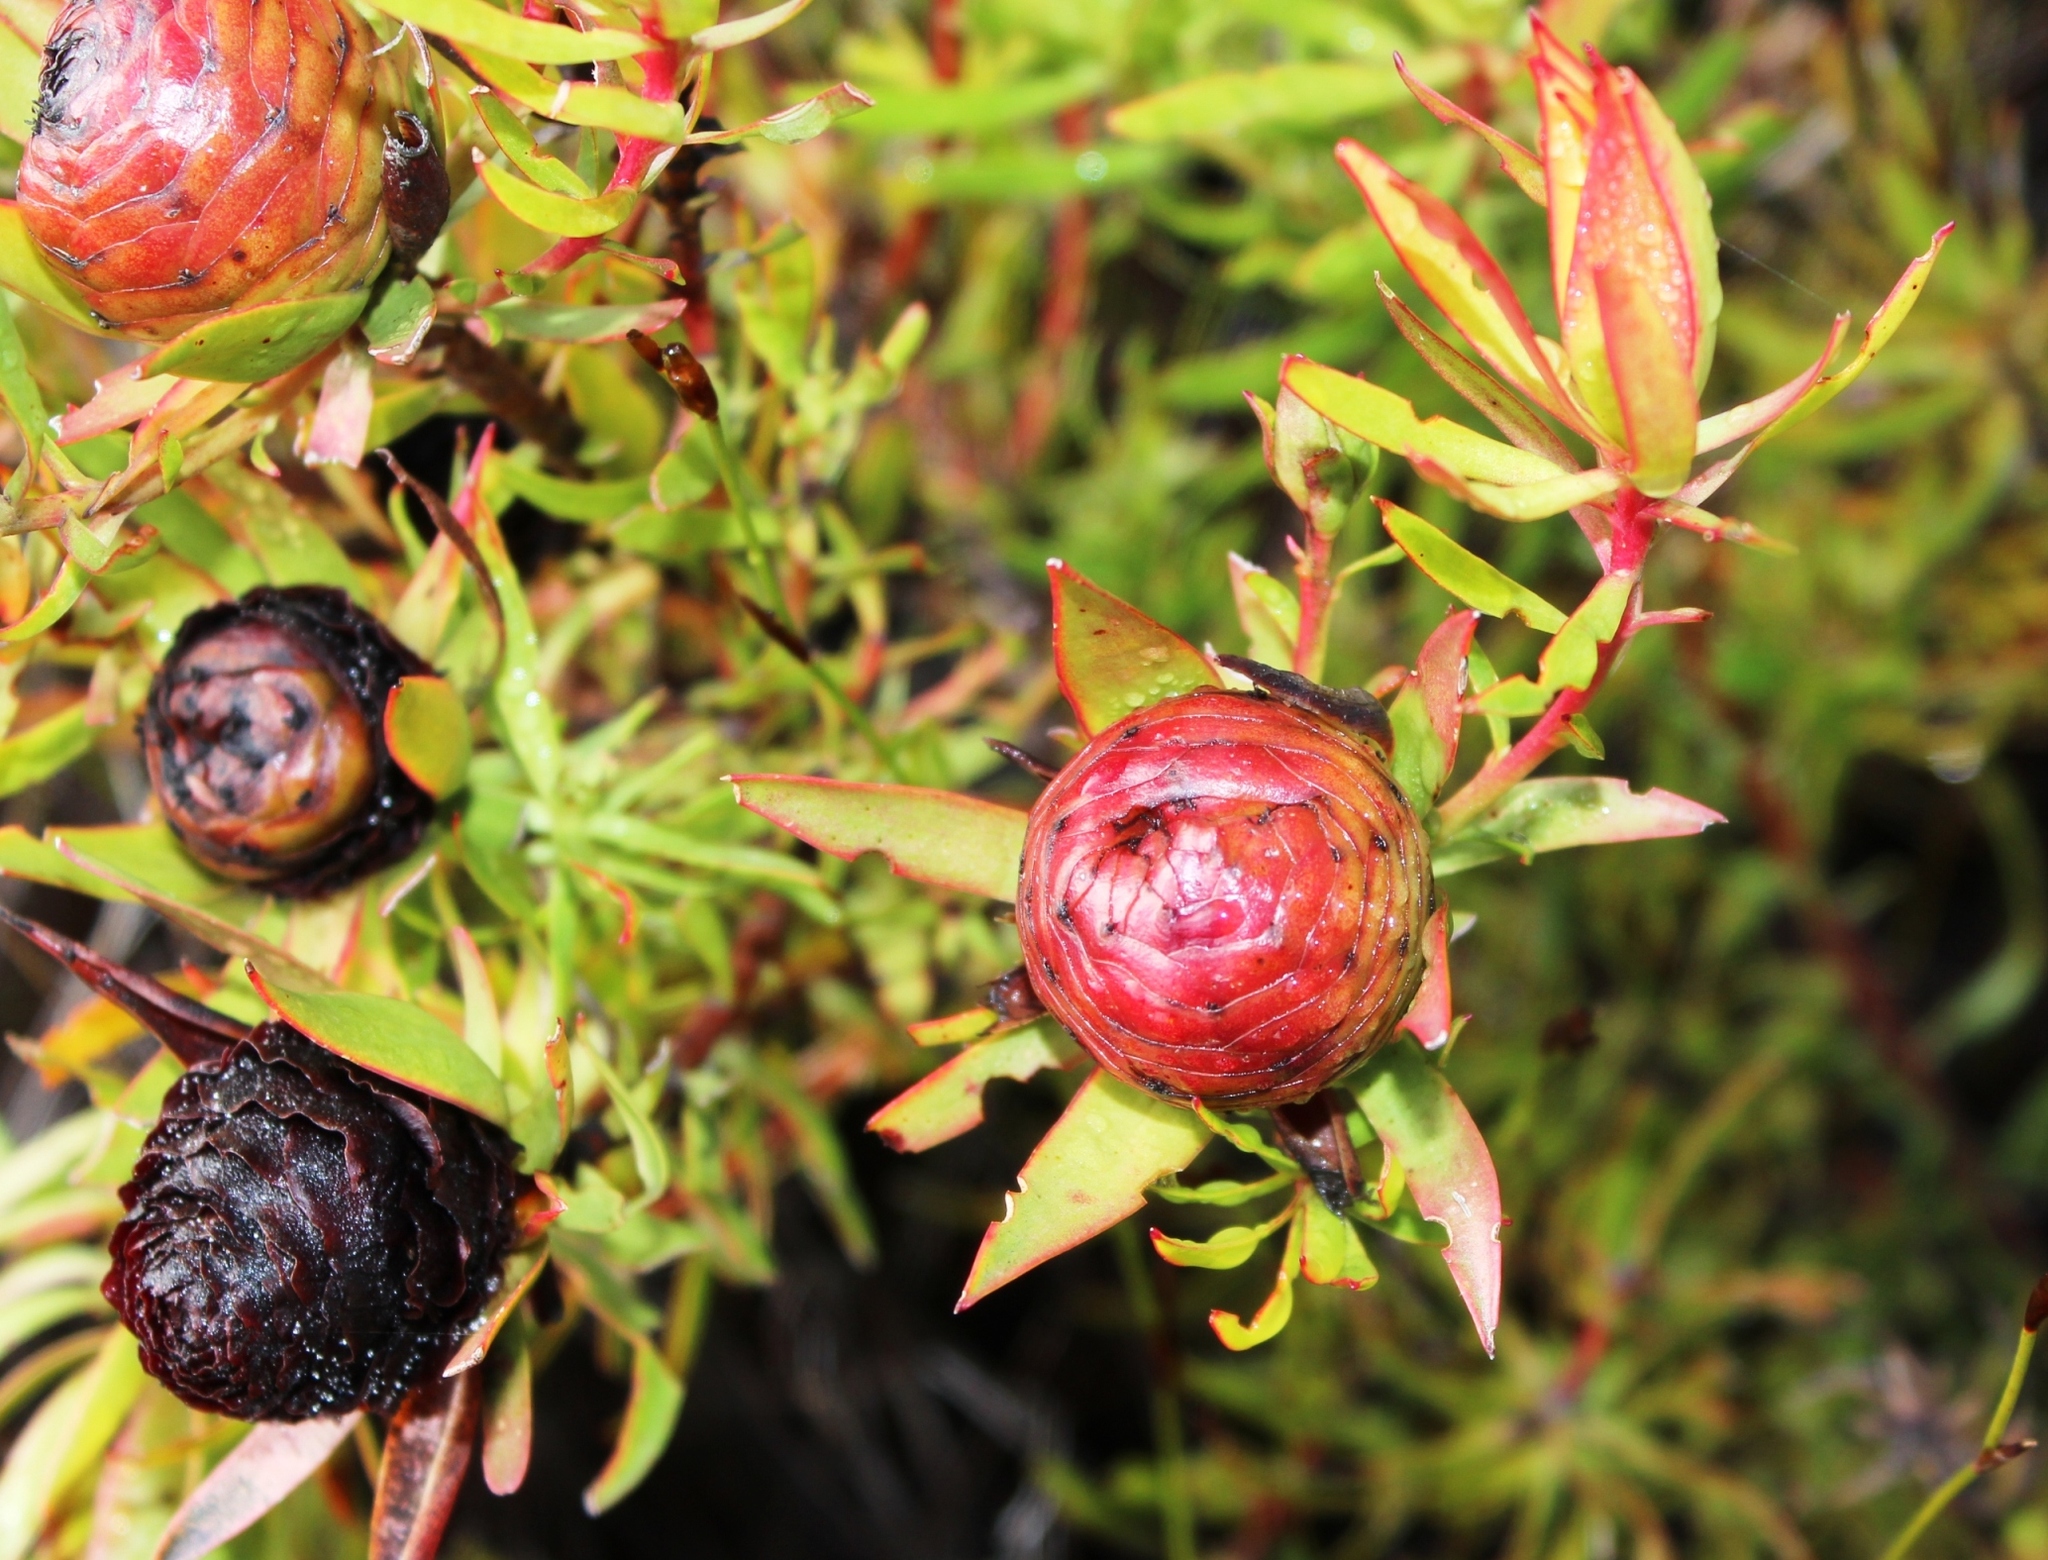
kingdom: Plantae
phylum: Tracheophyta
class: Magnoliopsida
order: Proteales
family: Proteaceae
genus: Leucadendron
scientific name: Leucadendron spissifolium
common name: Spear-leaf conebush
